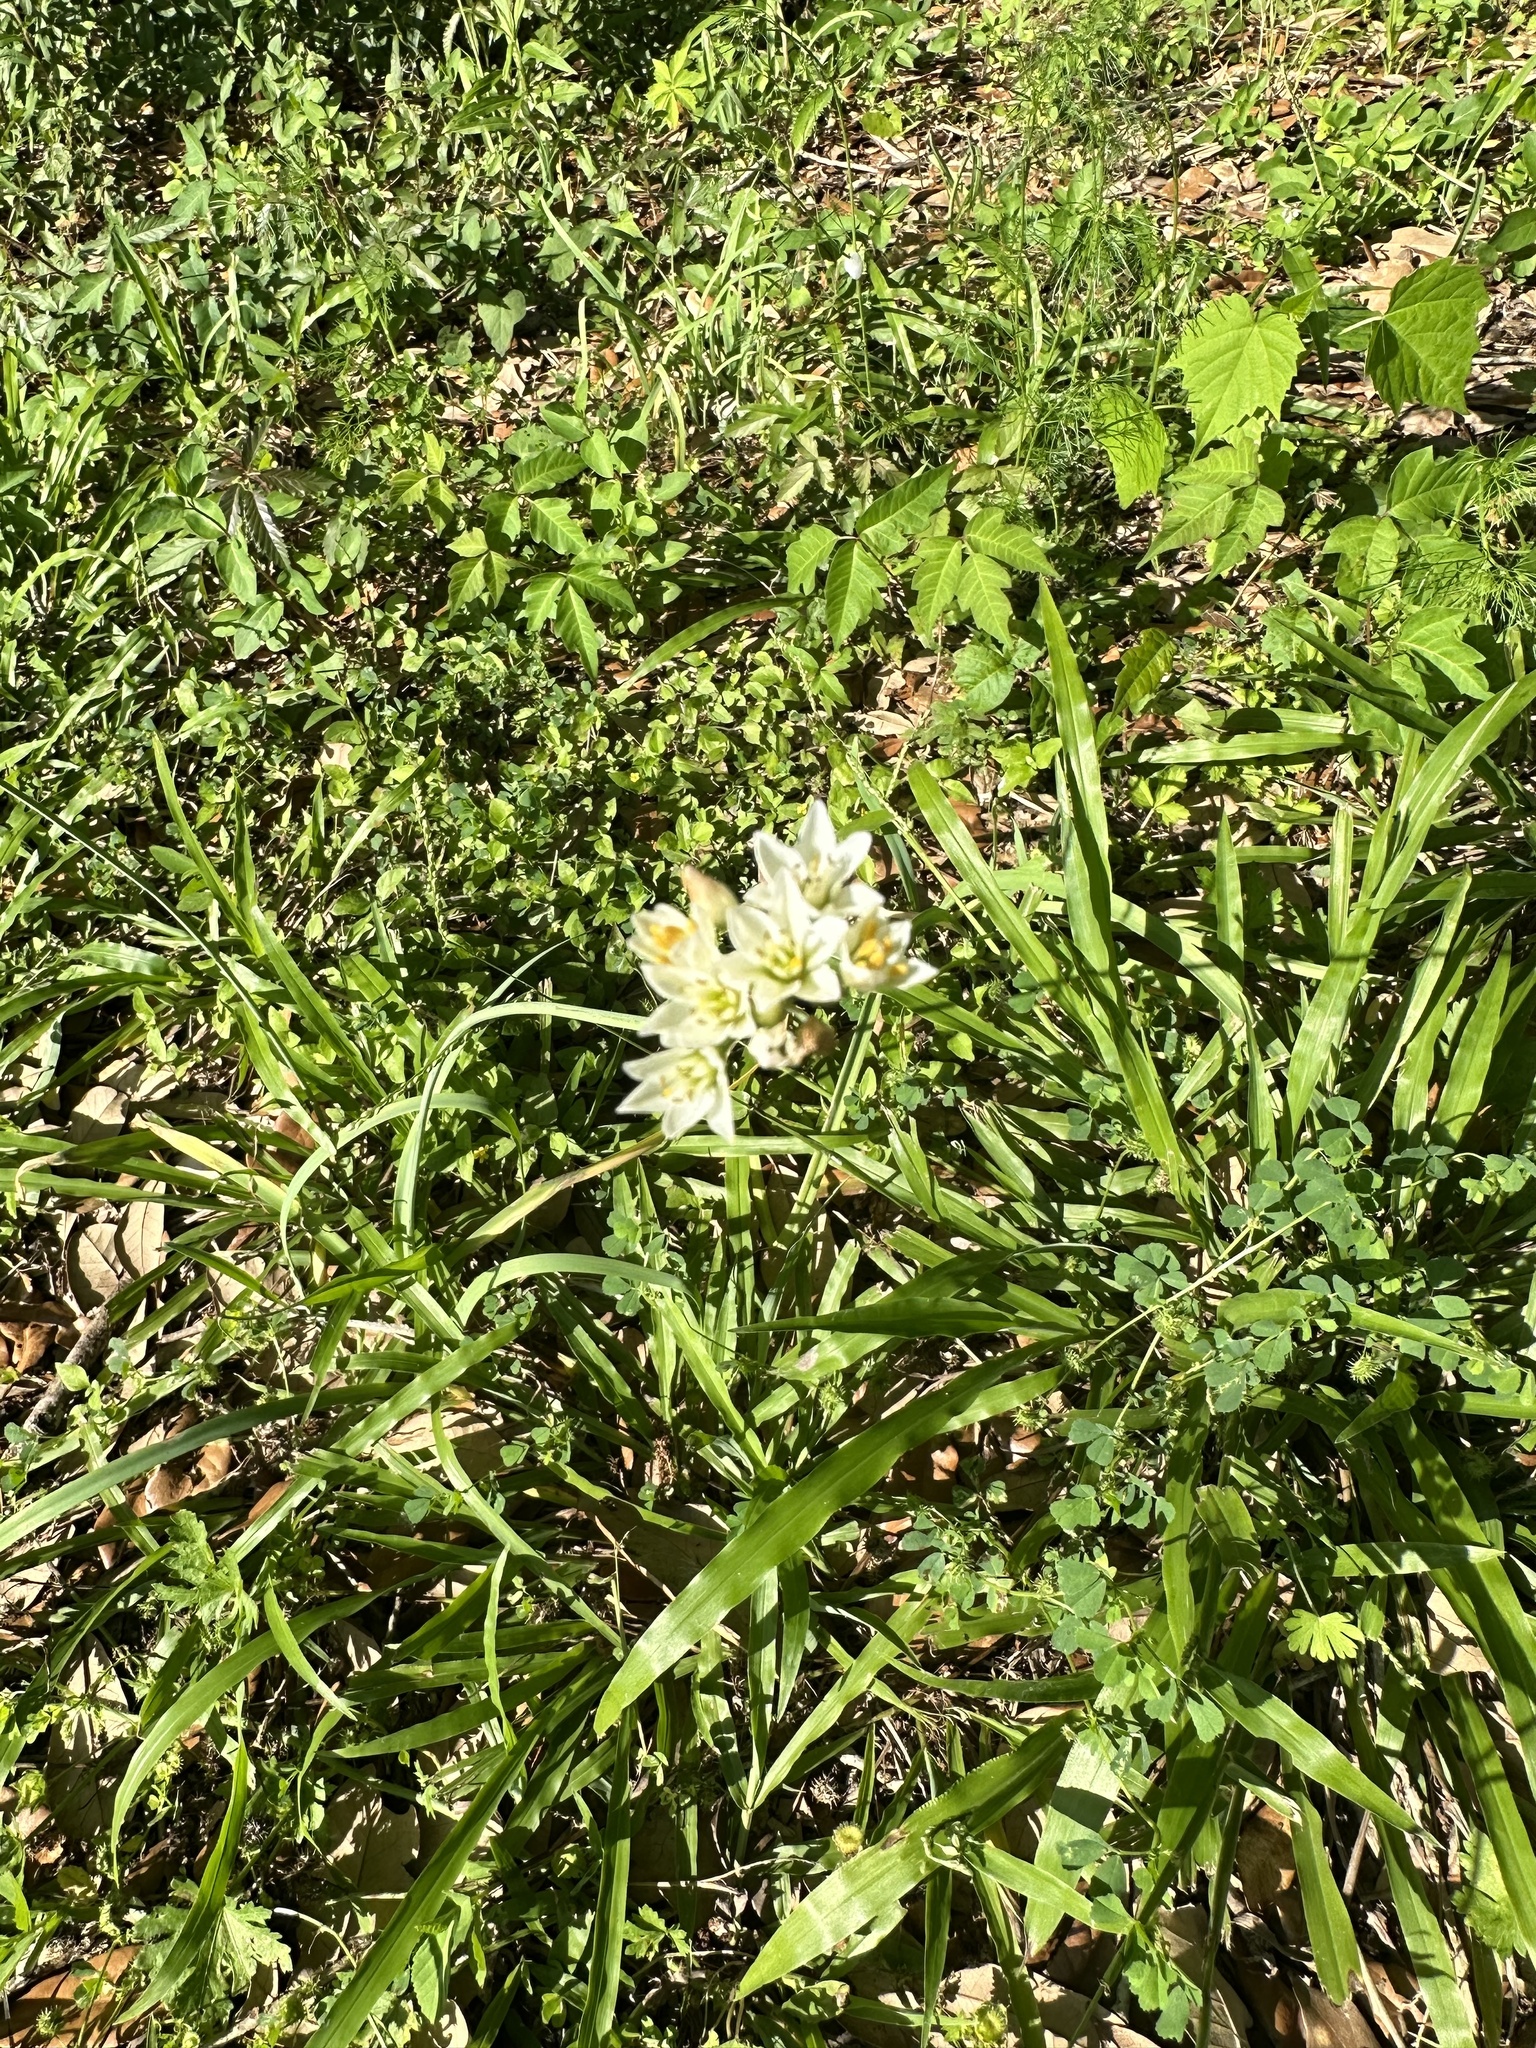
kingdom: Plantae
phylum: Tracheophyta
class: Liliopsida
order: Asparagales
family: Amaryllidaceae
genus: Nothoscordum
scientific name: Nothoscordum gracile
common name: Slender false garlic
